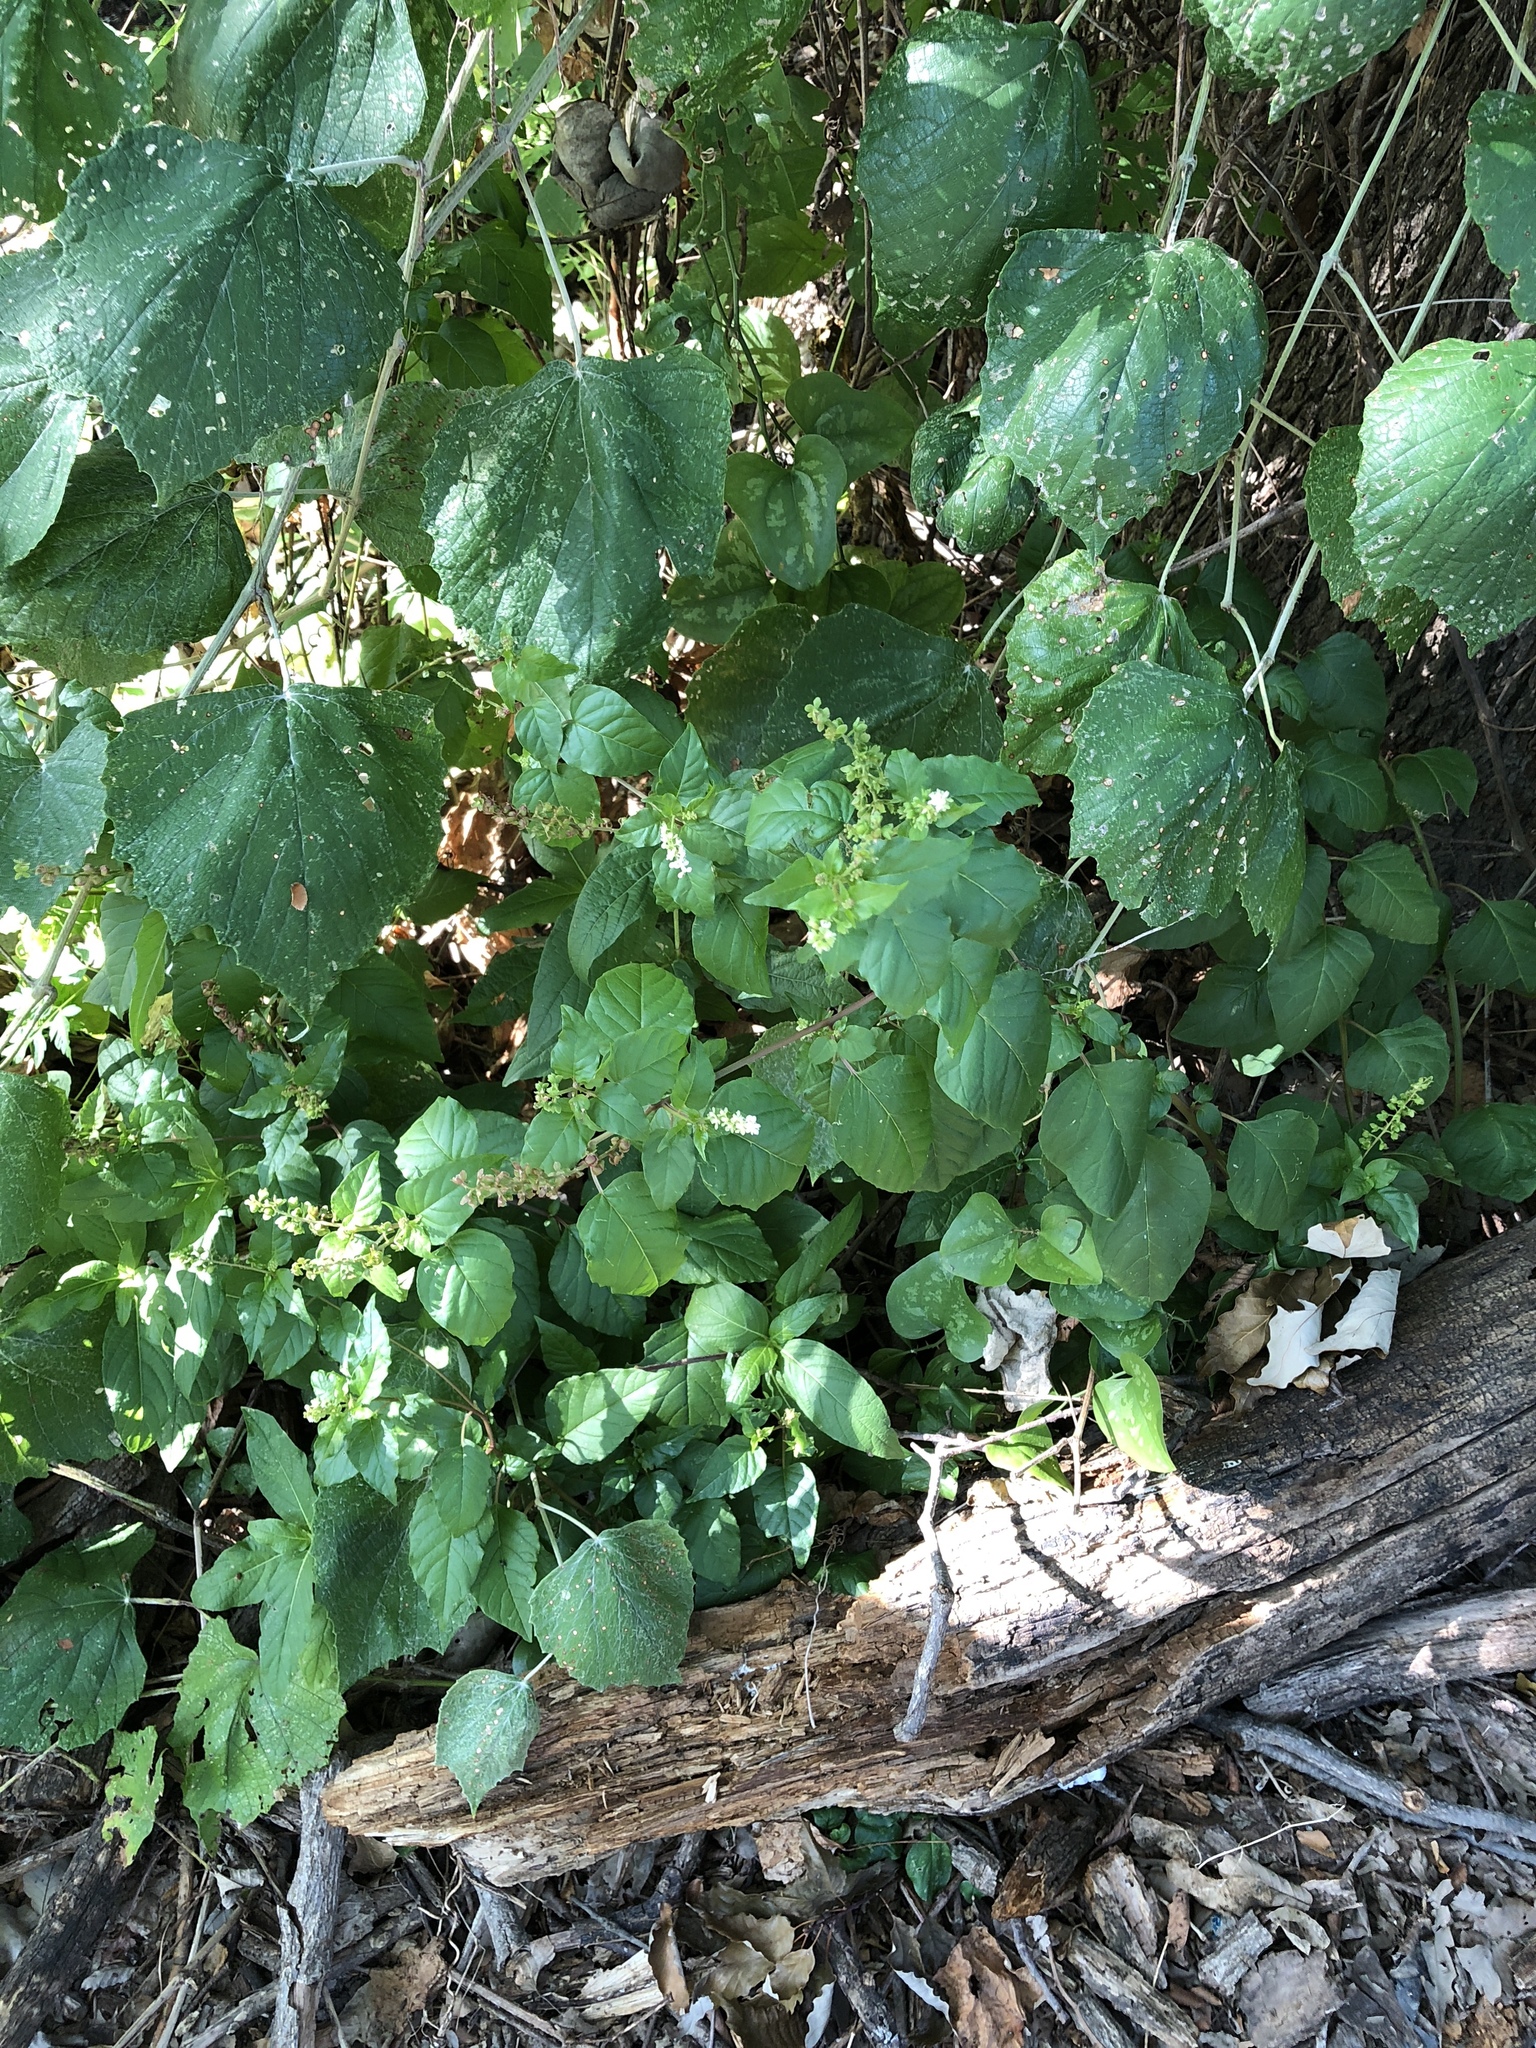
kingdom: Plantae
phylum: Tracheophyta
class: Magnoliopsida
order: Caryophyllales
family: Phytolaccaceae
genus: Rivina
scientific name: Rivina humilis
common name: Rougeplant
